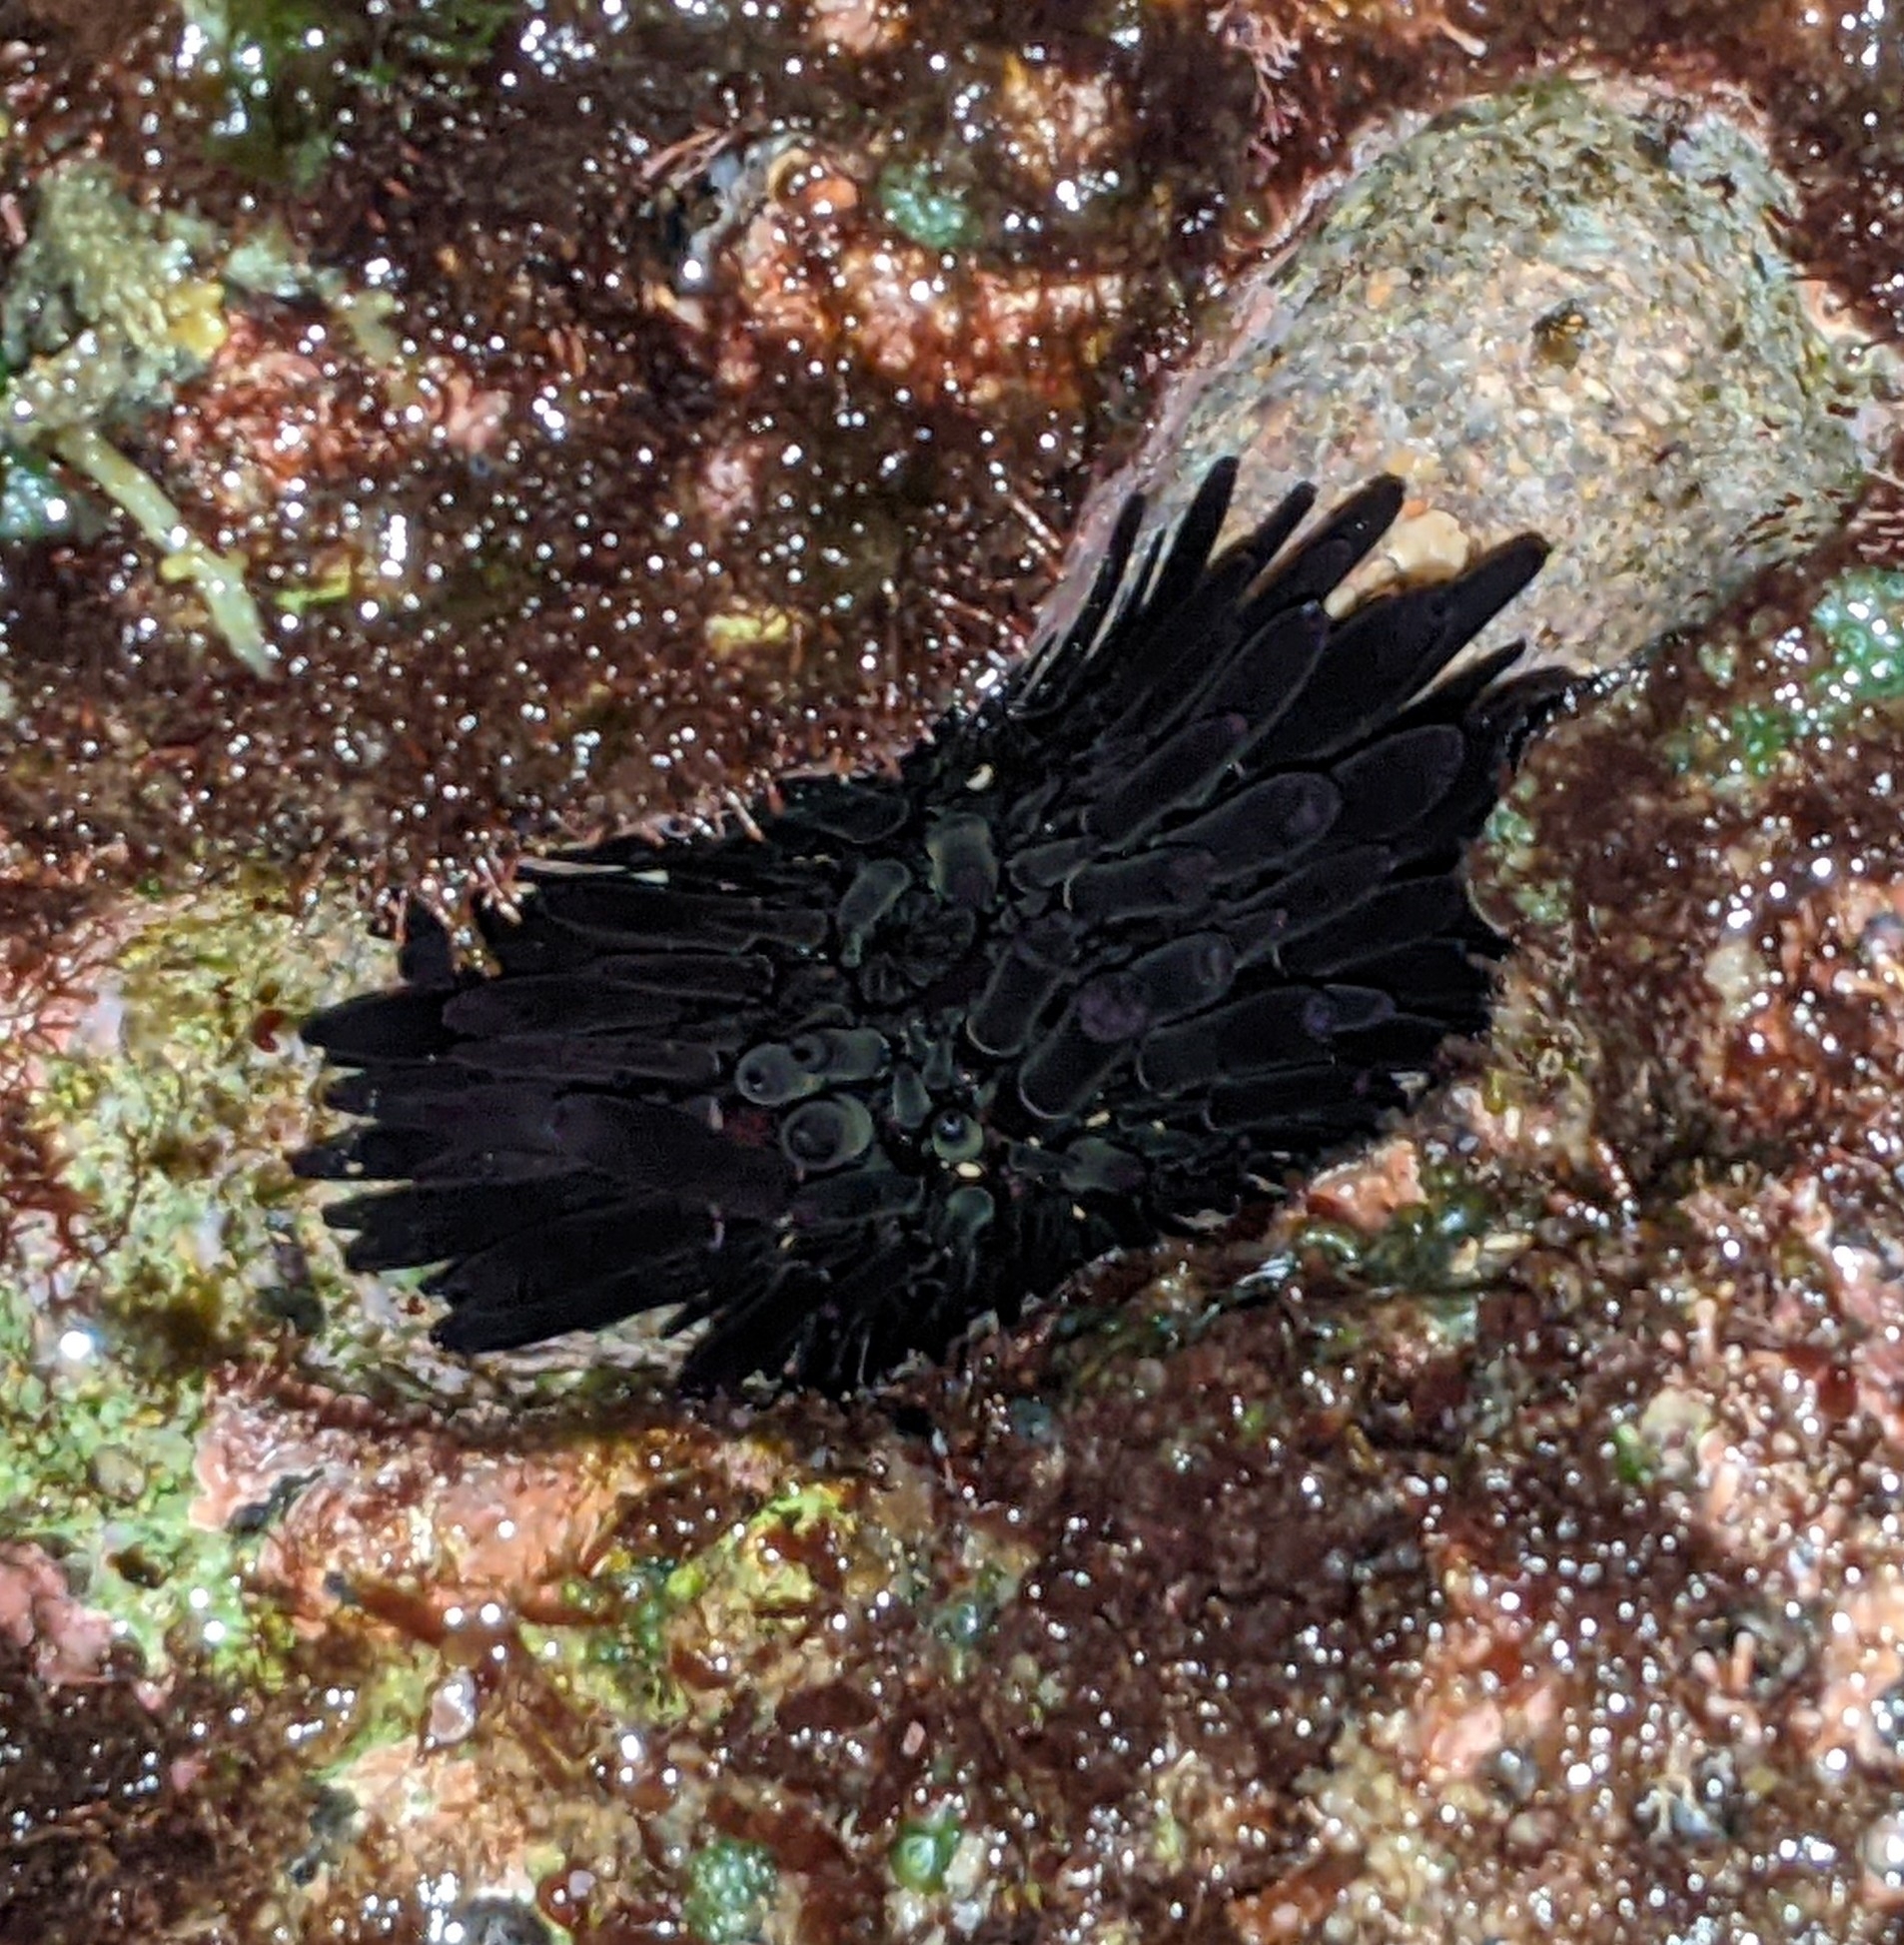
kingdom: Animalia
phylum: Echinodermata
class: Echinoidea
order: Camarodonta
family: Echinometridae
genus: Echinometra
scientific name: Echinometra oblonga
